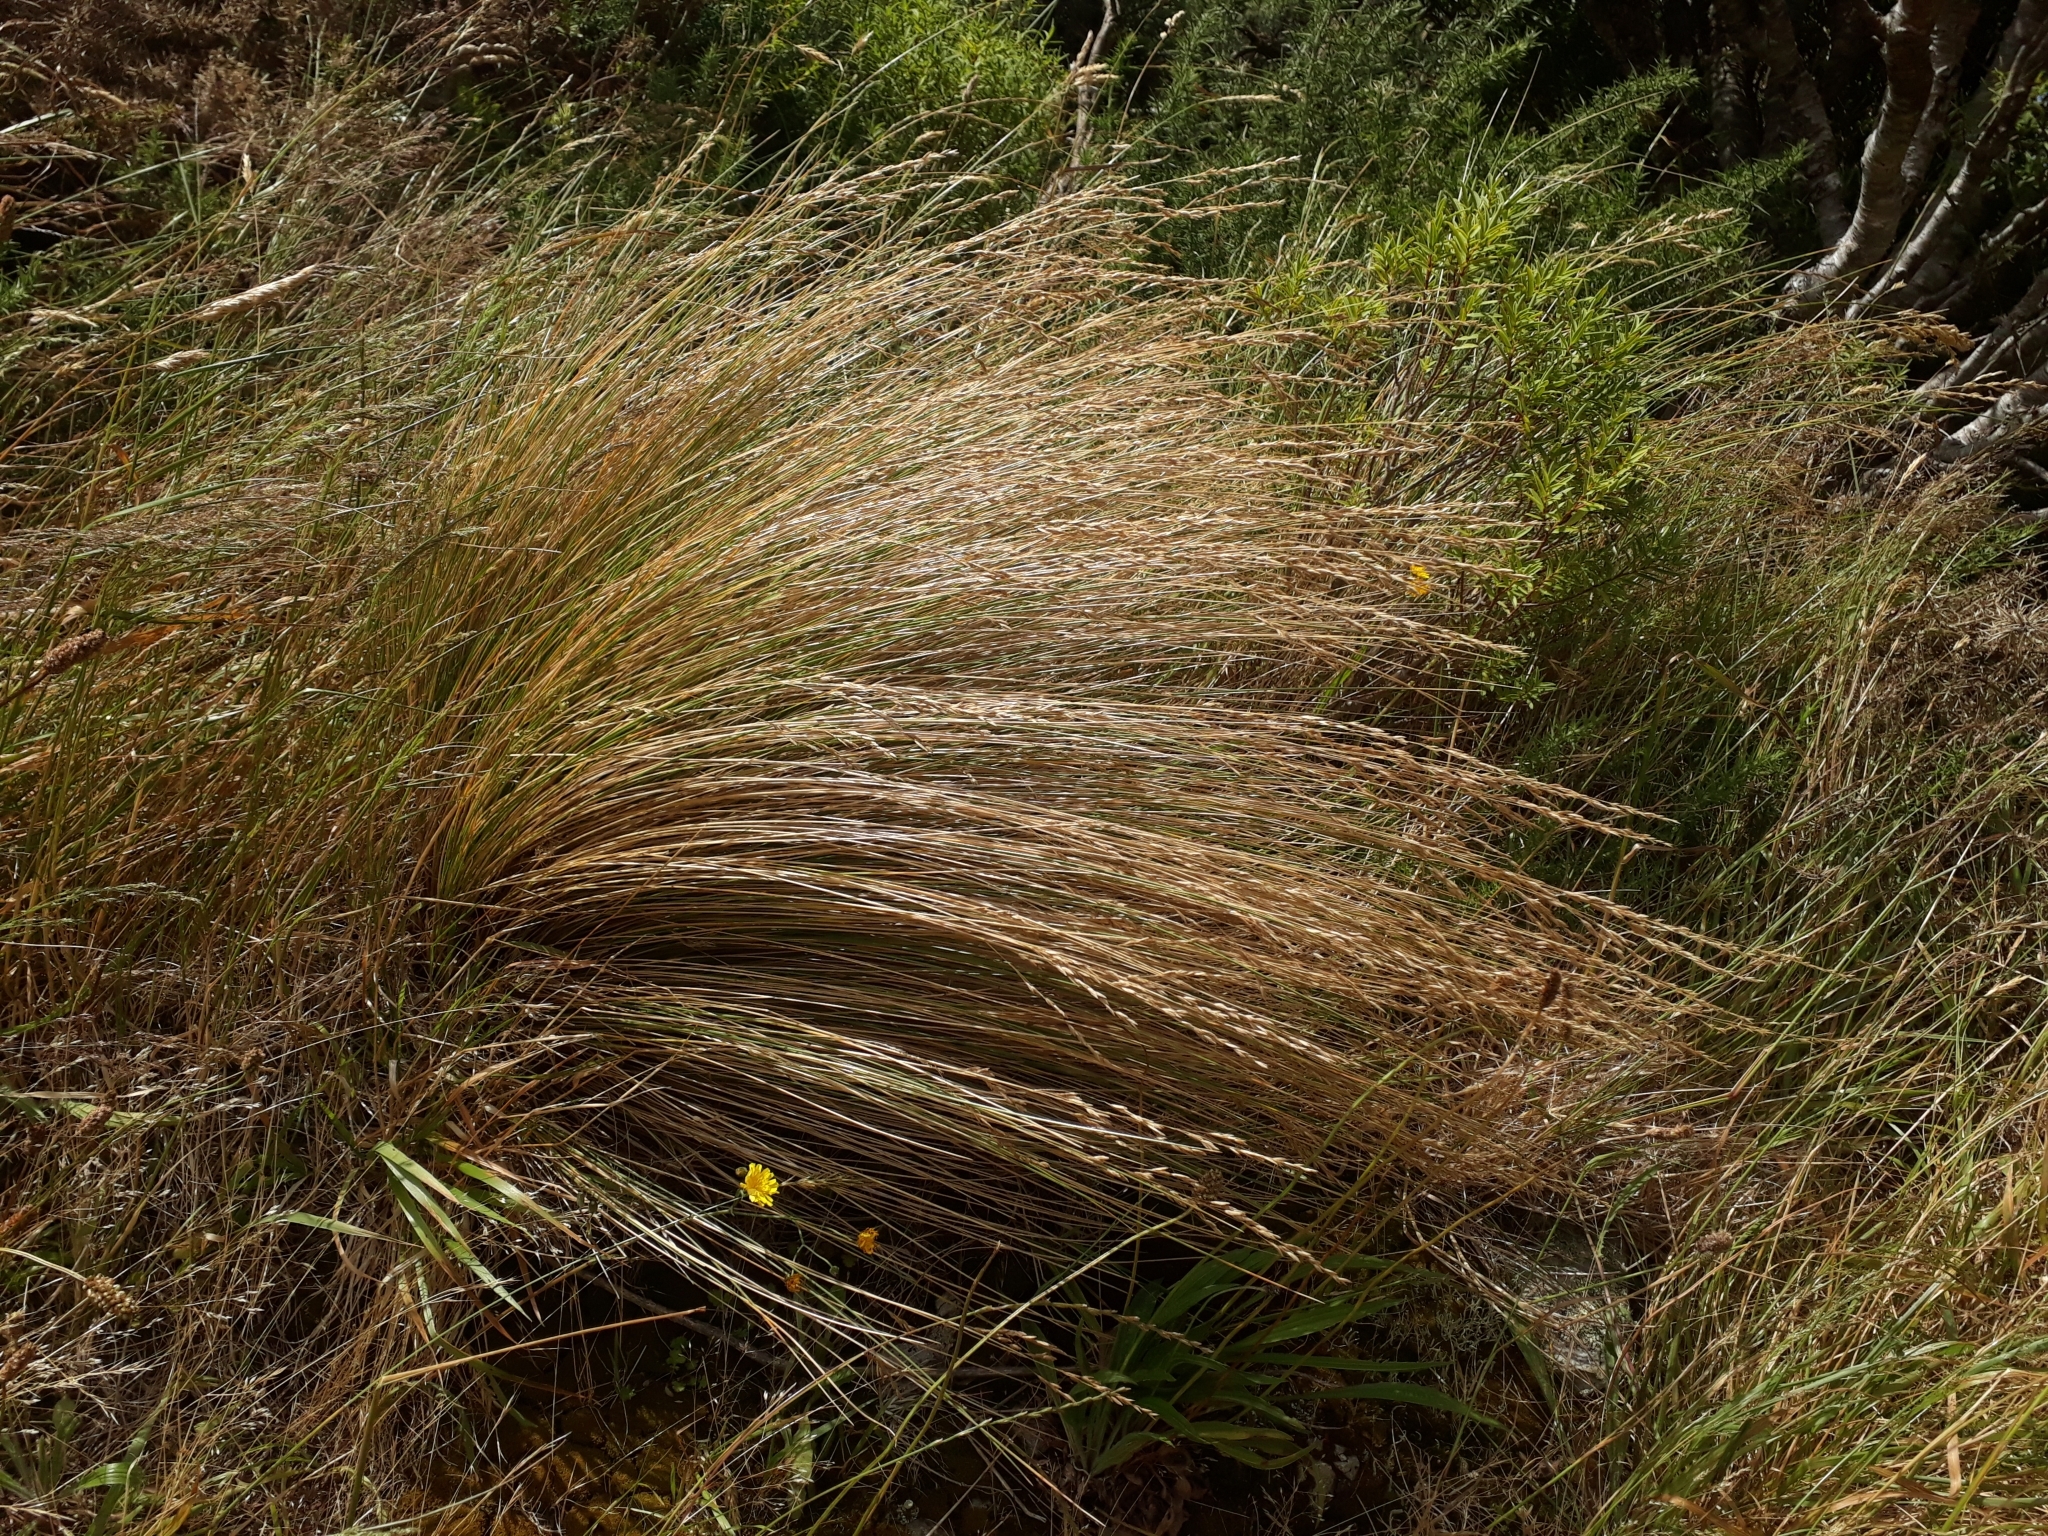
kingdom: Plantae
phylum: Tracheophyta
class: Liliopsida
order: Poales
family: Poaceae
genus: Poa
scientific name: Poa cita
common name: Silver tussock
